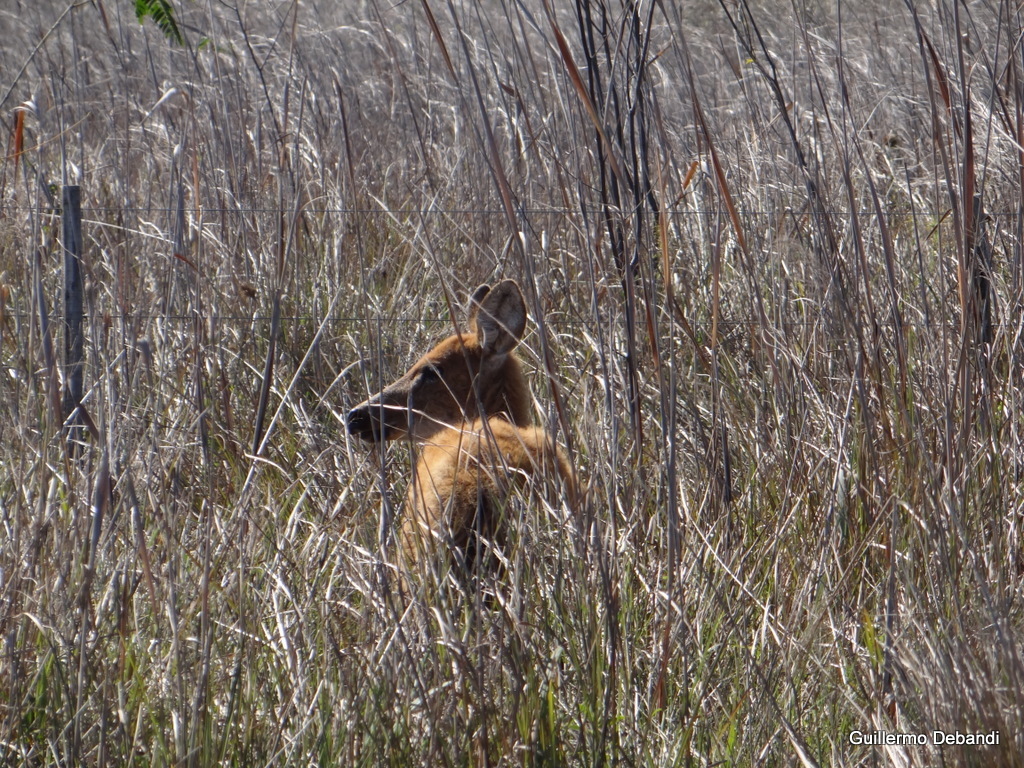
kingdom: Animalia
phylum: Chordata
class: Mammalia
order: Artiodactyla
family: Cervidae
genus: Blastocerus
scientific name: Blastocerus dichotomus
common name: Marsh deer
